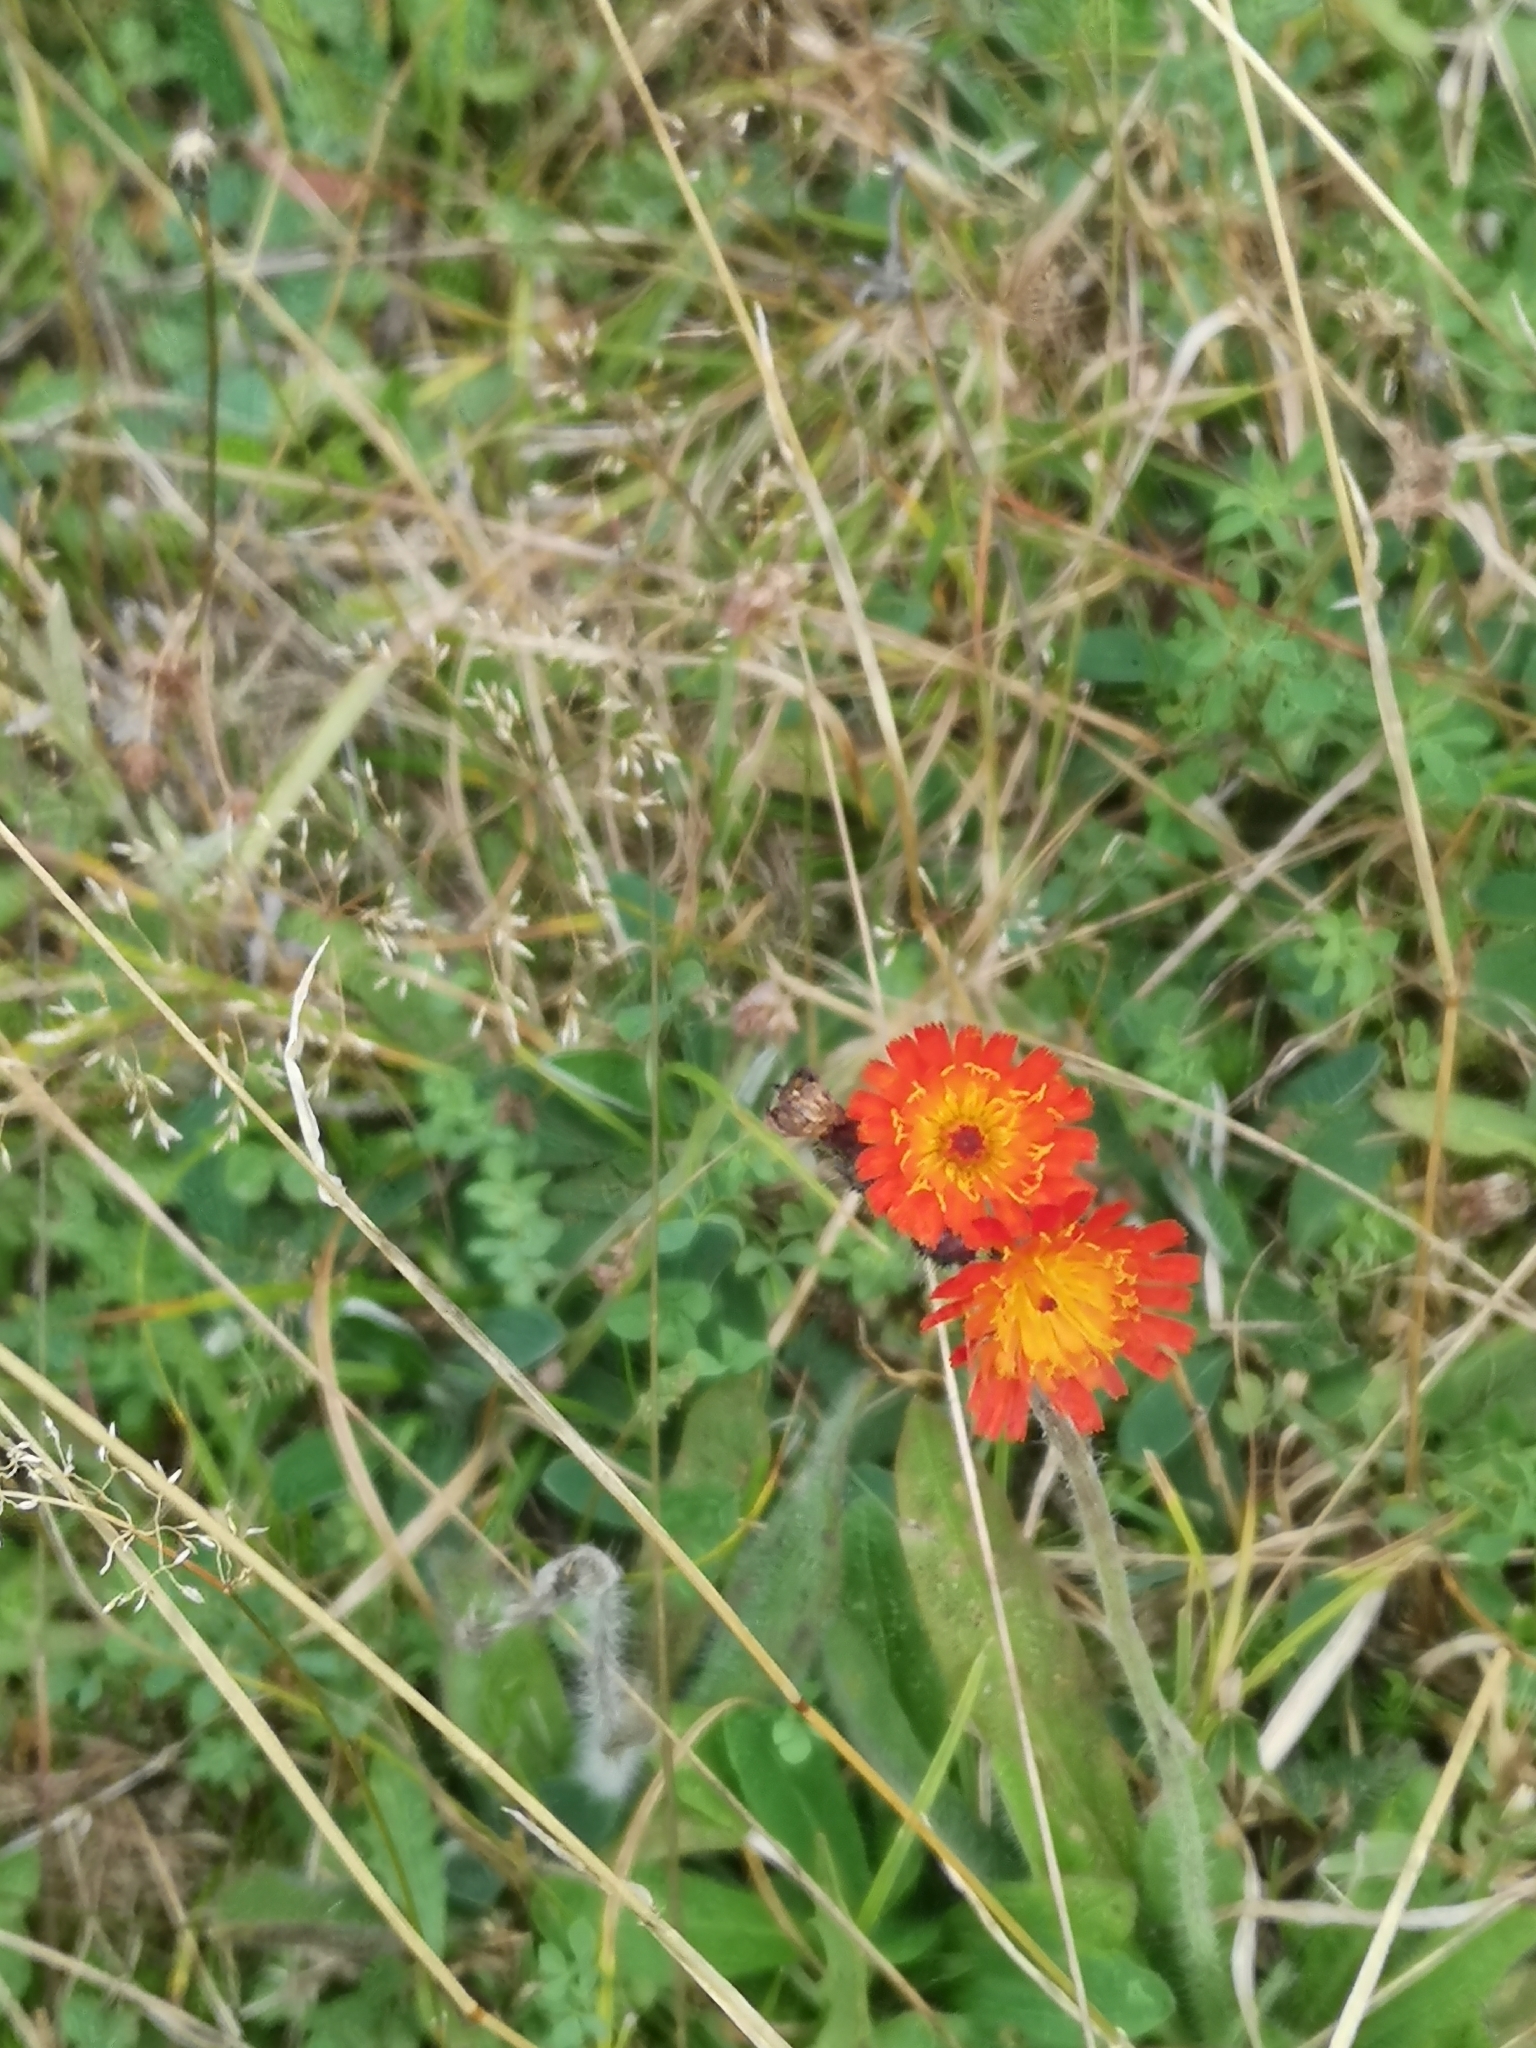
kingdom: Plantae
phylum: Tracheophyta
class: Magnoliopsida
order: Asterales
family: Asteraceae
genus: Pilosella
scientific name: Pilosella aurantiaca
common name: Fox-and-cubs
